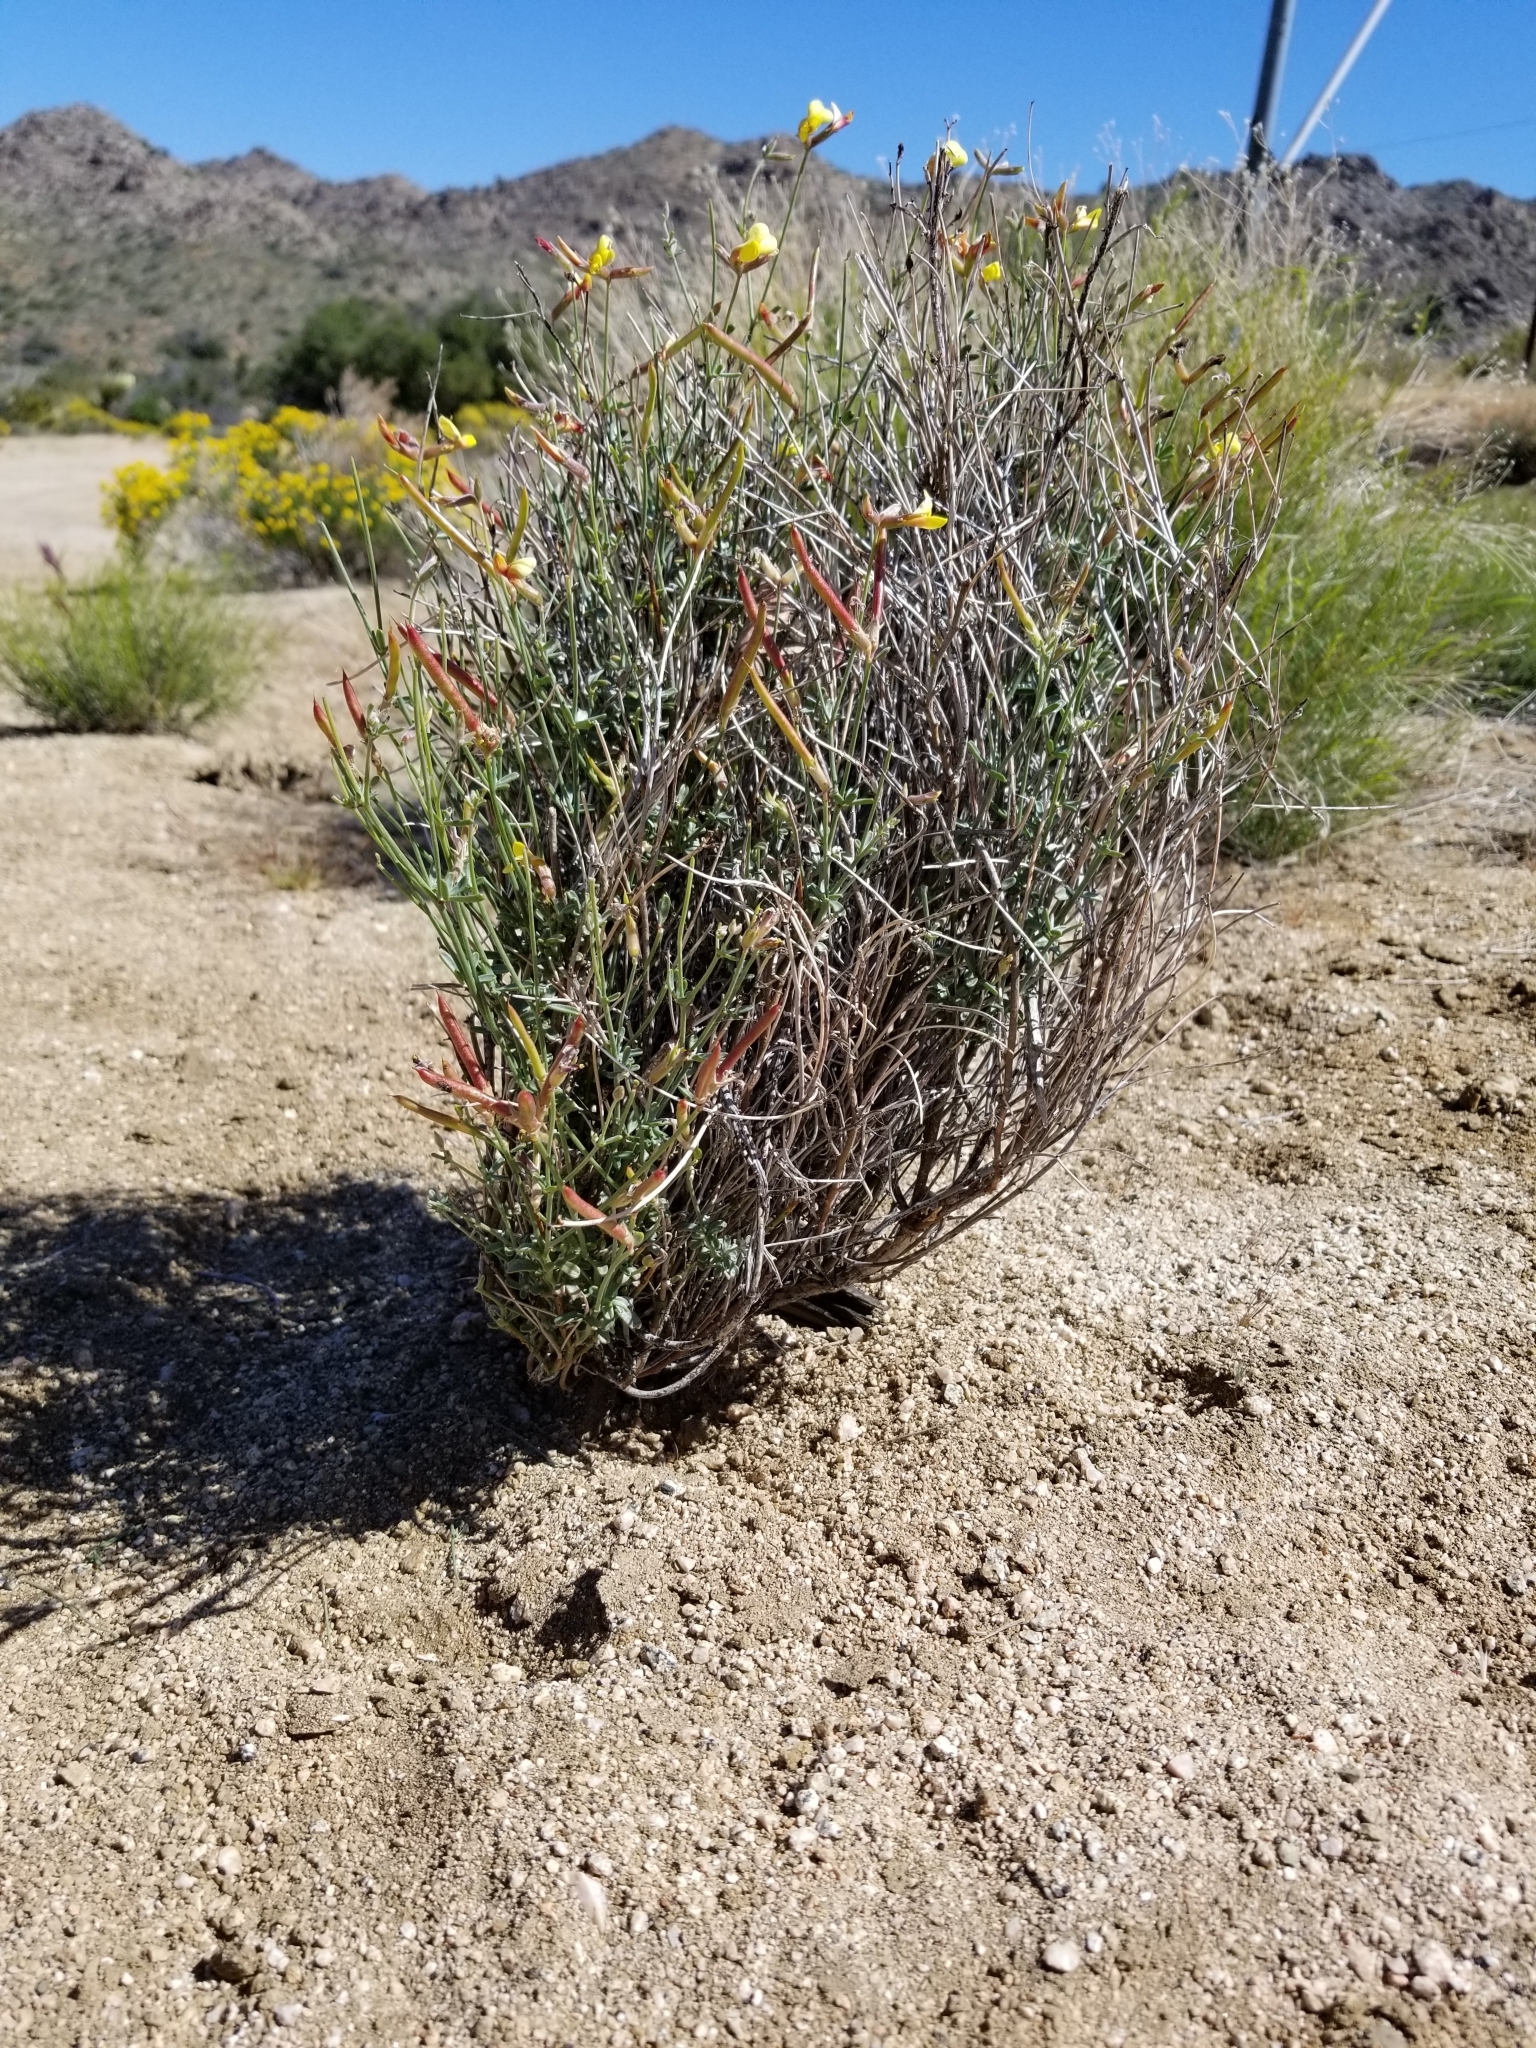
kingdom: Plantae
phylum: Tracheophyta
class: Magnoliopsida
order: Fabales
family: Fabaceae
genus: Acmispon
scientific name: Acmispon rigidus
